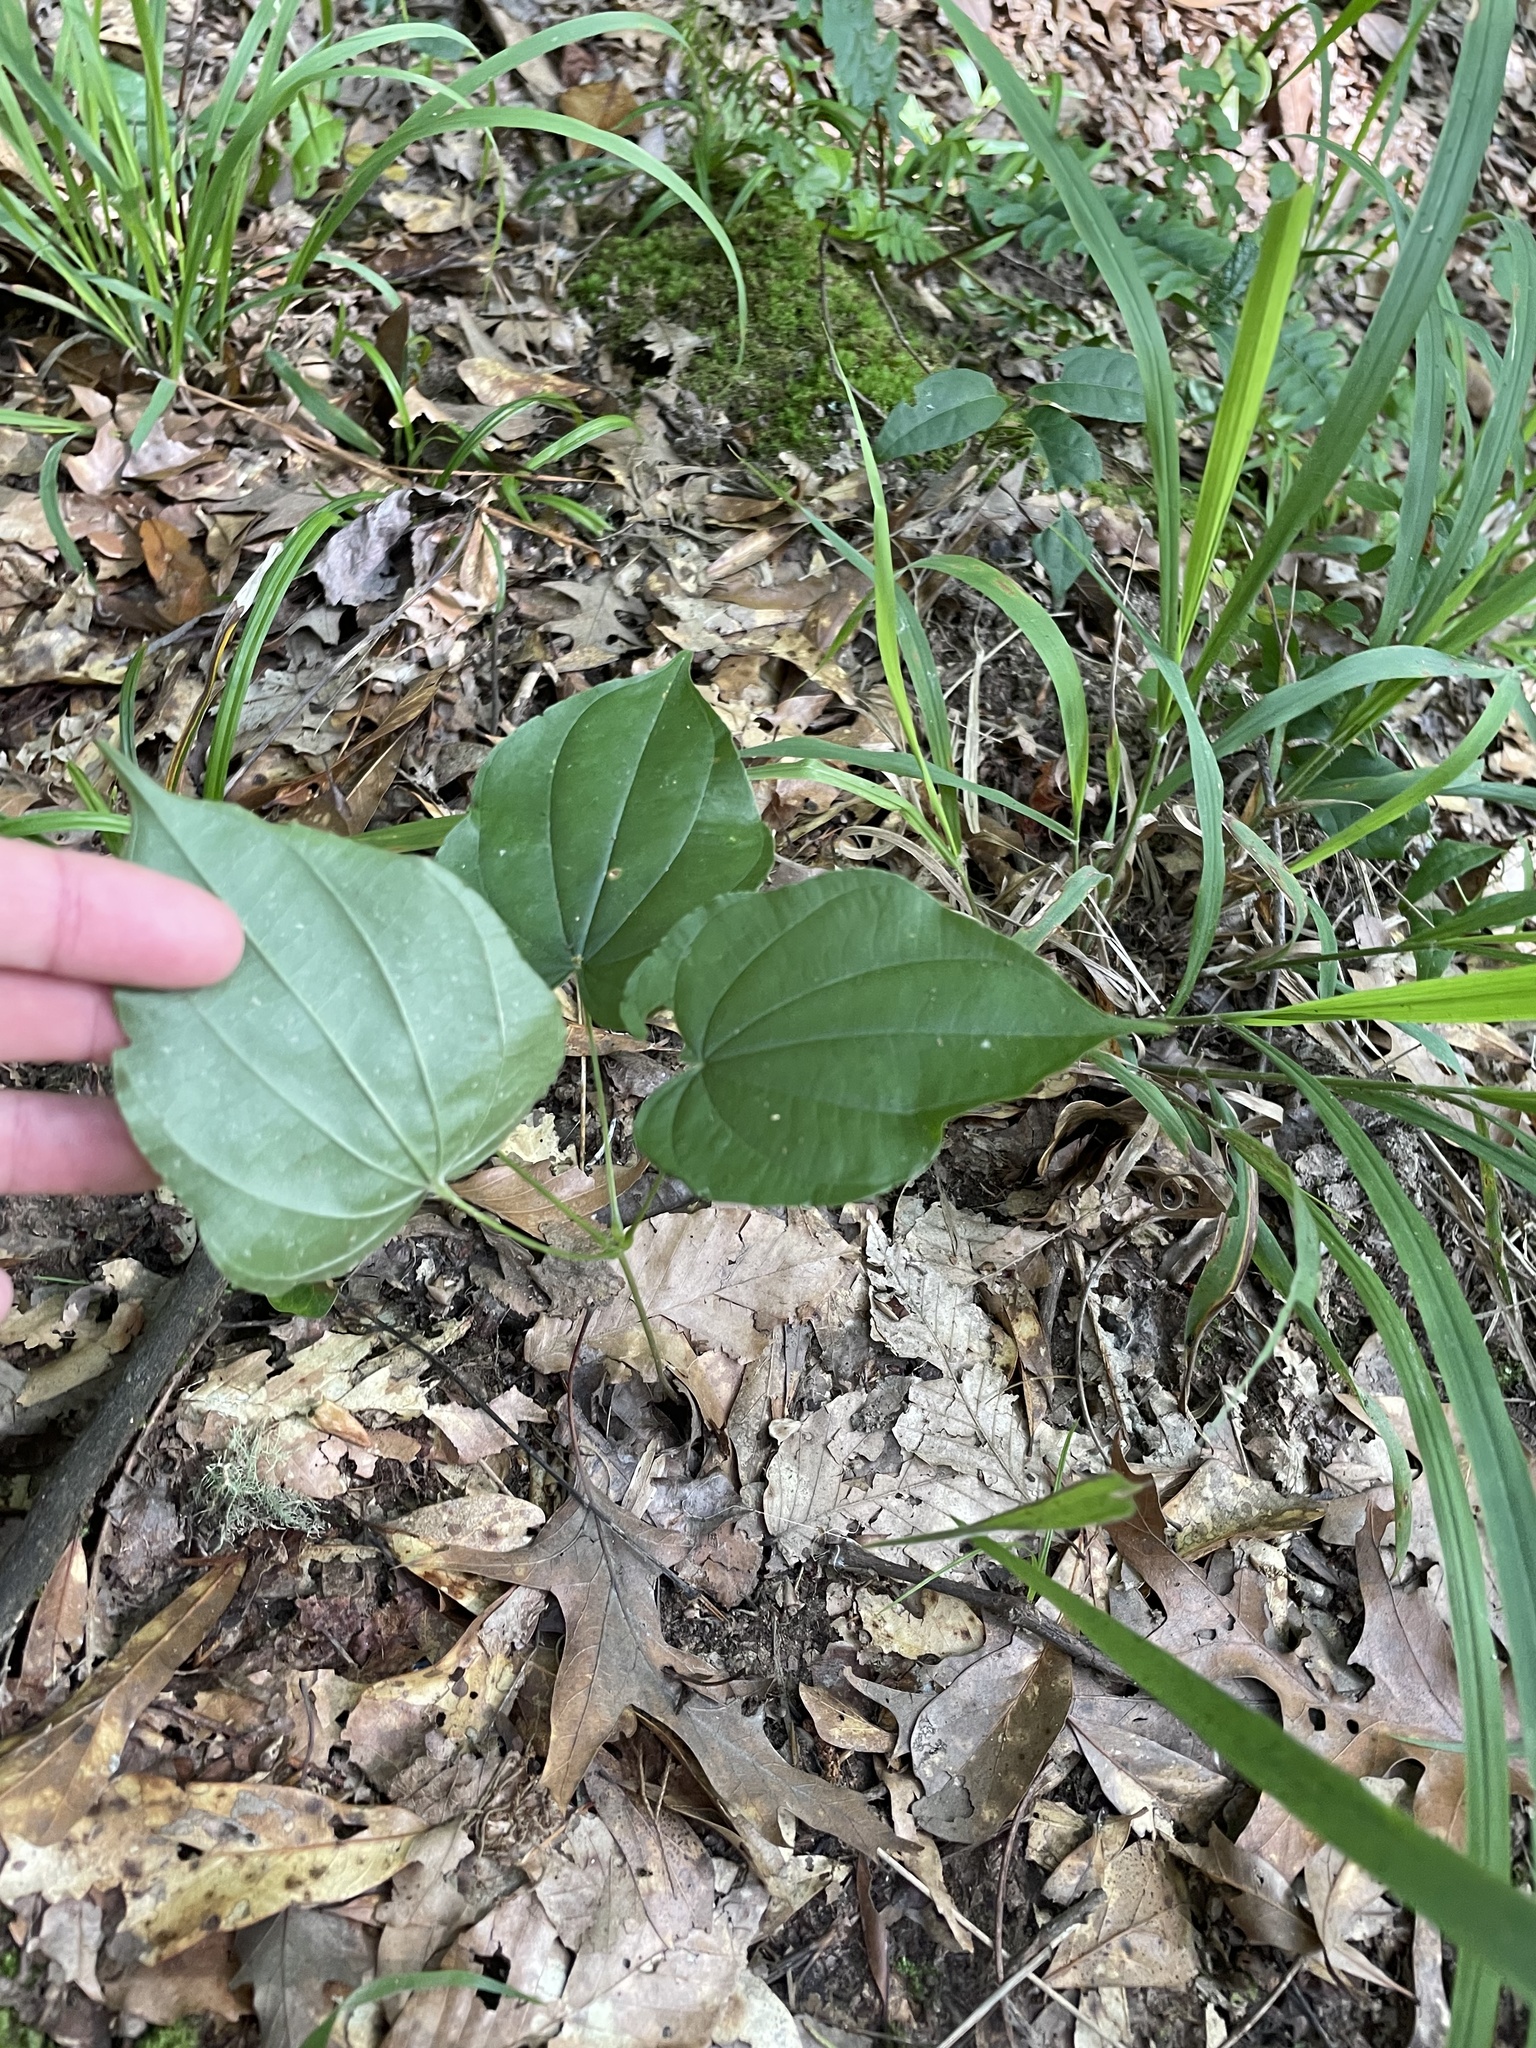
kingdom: Plantae
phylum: Tracheophyta
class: Liliopsida
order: Dioscoreales
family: Dioscoreaceae
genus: Dioscorea
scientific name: Dioscorea villosa
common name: Wild yam
